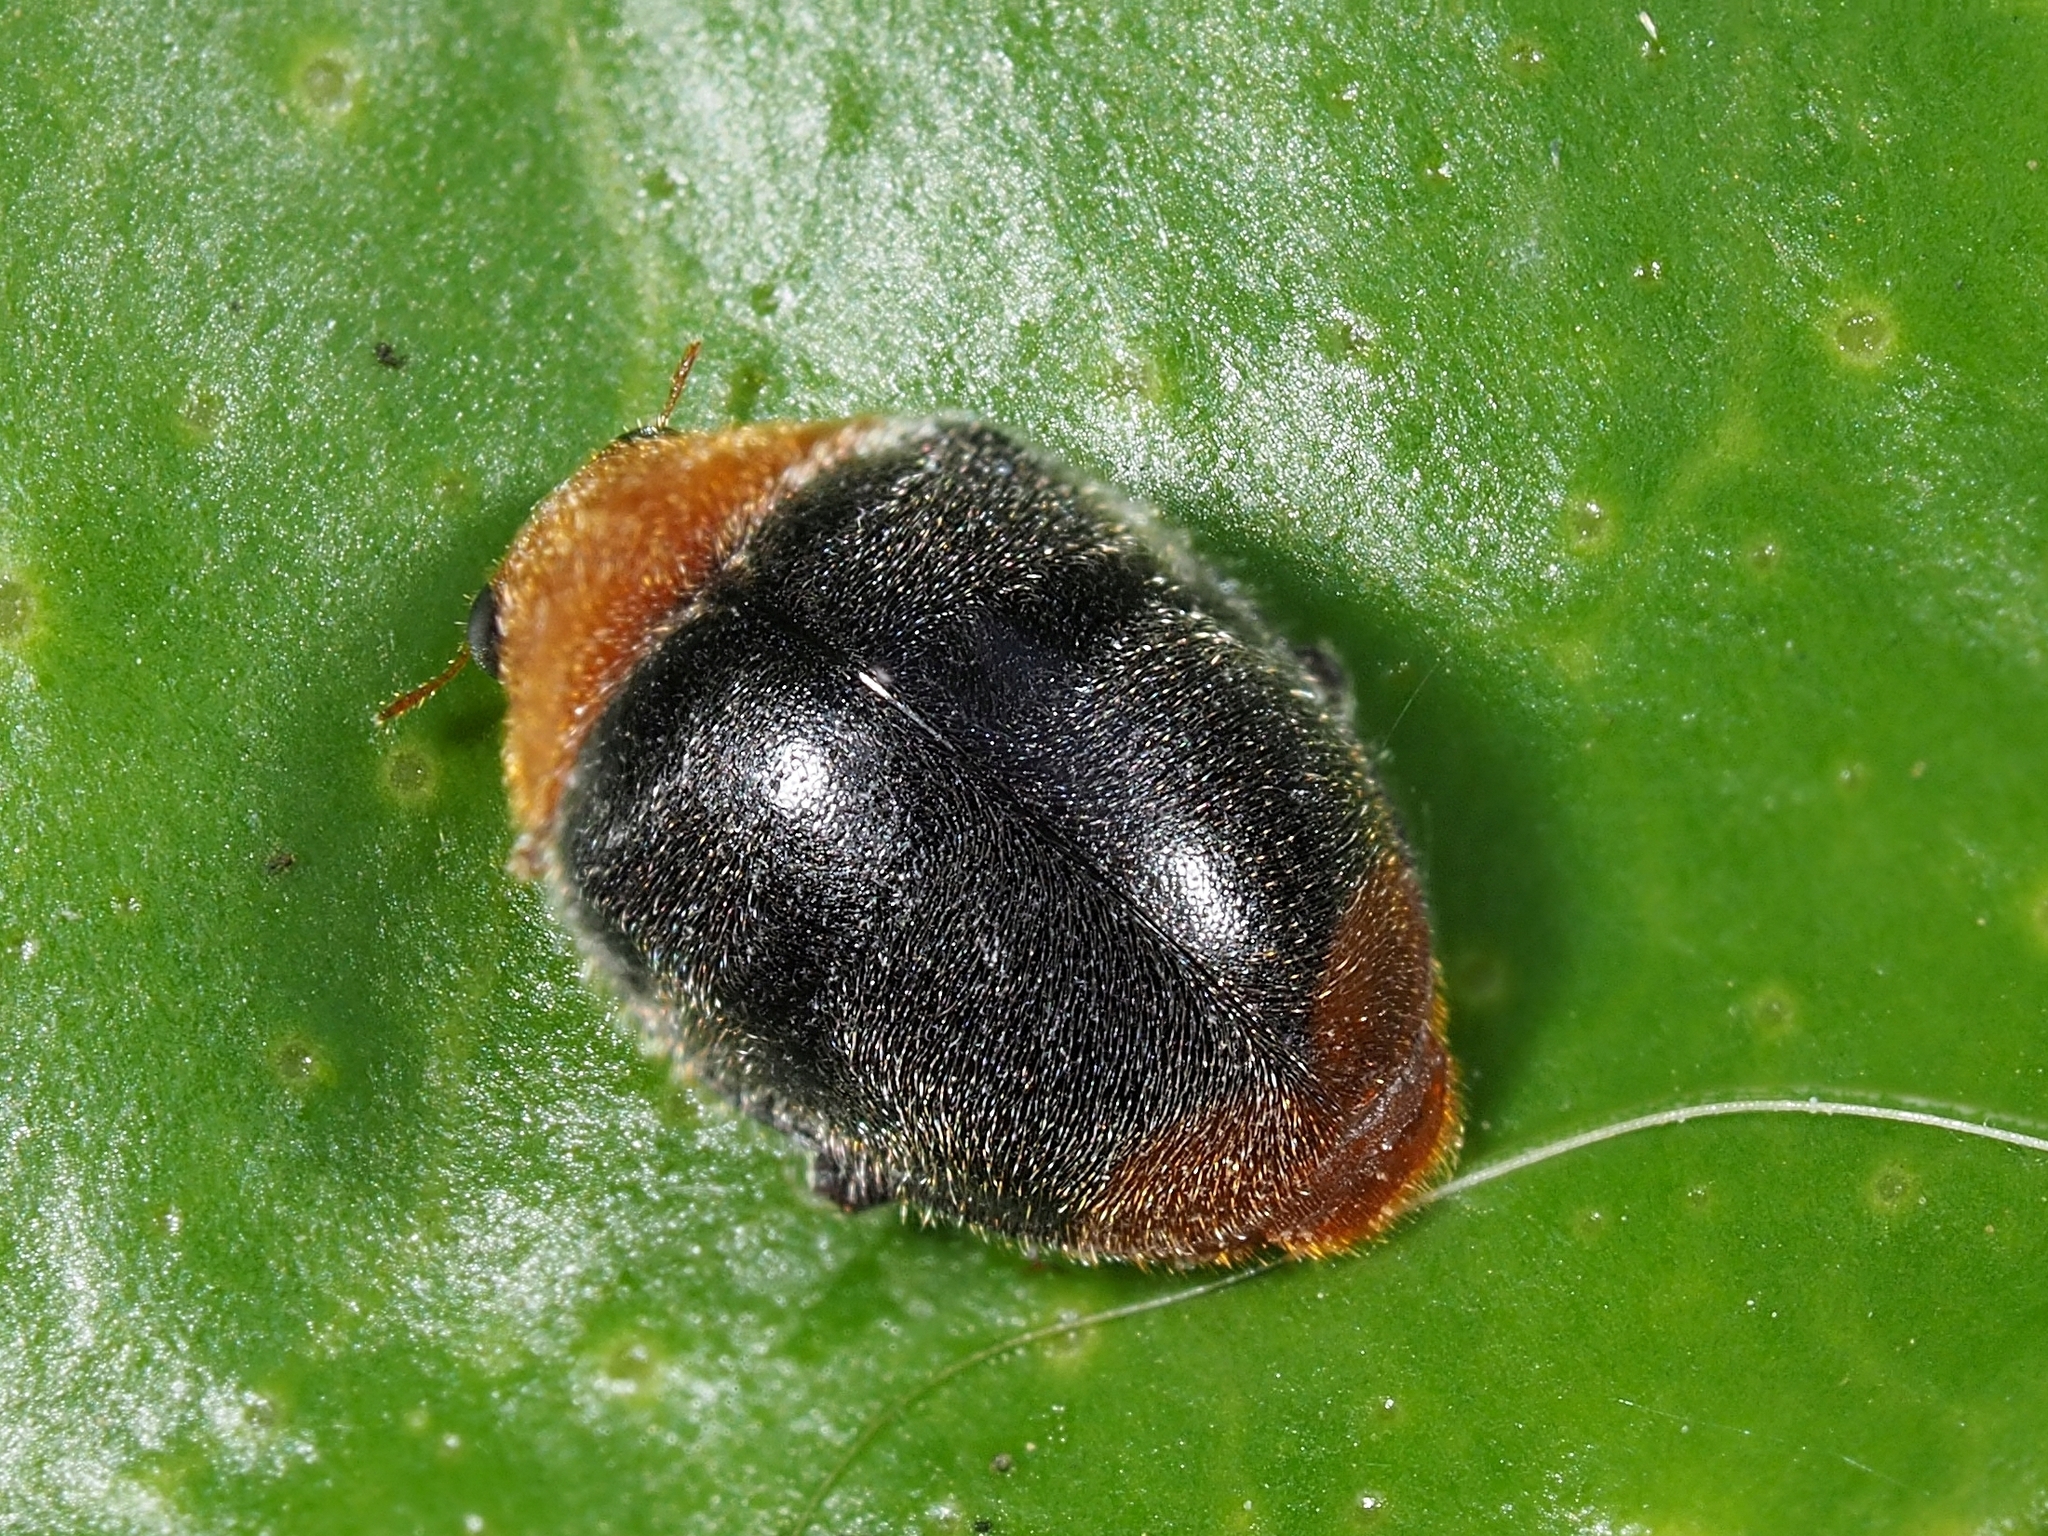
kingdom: Animalia
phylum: Arthropoda
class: Insecta
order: Coleoptera
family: Coccinellidae
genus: Cryptolaemus
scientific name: Cryptolaemus montrouzieri
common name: Mealybug destroyer
